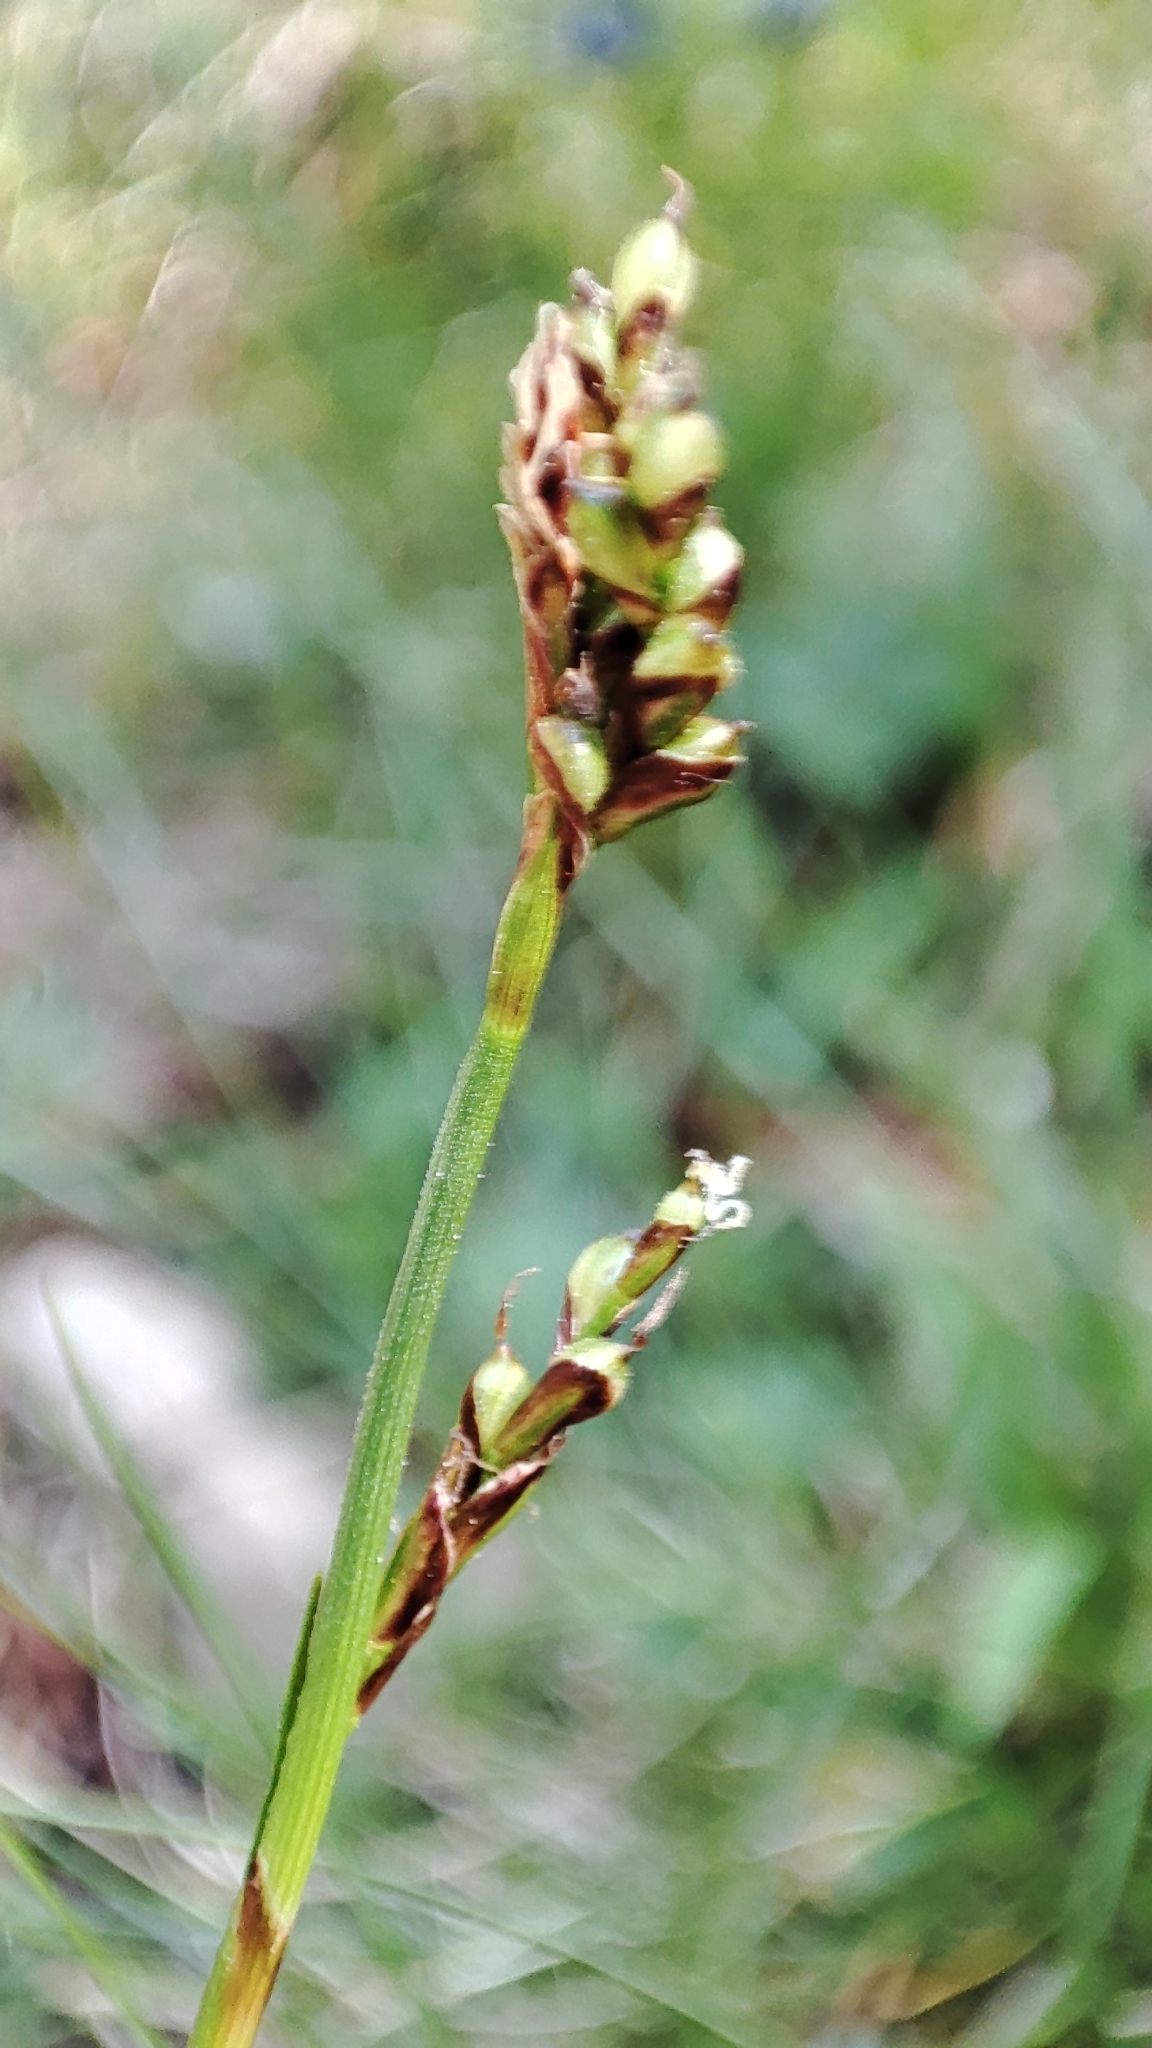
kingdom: Plantae
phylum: Tracheophyta
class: Liliopsida
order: Poales
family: Cyperaceae
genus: Carex
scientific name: Carex ornithopoda
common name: Bird's-foot sedge
